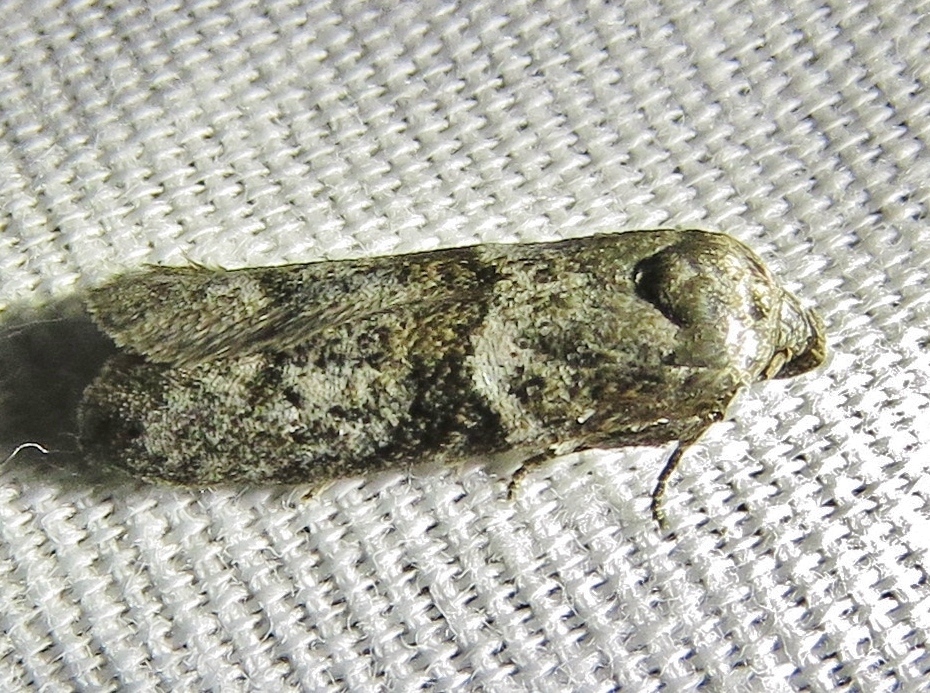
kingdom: Animalia
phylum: Arthropoda
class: Insecta
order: Lepidoptera
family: Blastobasidae
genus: Blastobasis
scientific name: Blastobasis glandulella
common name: Acorn moth
